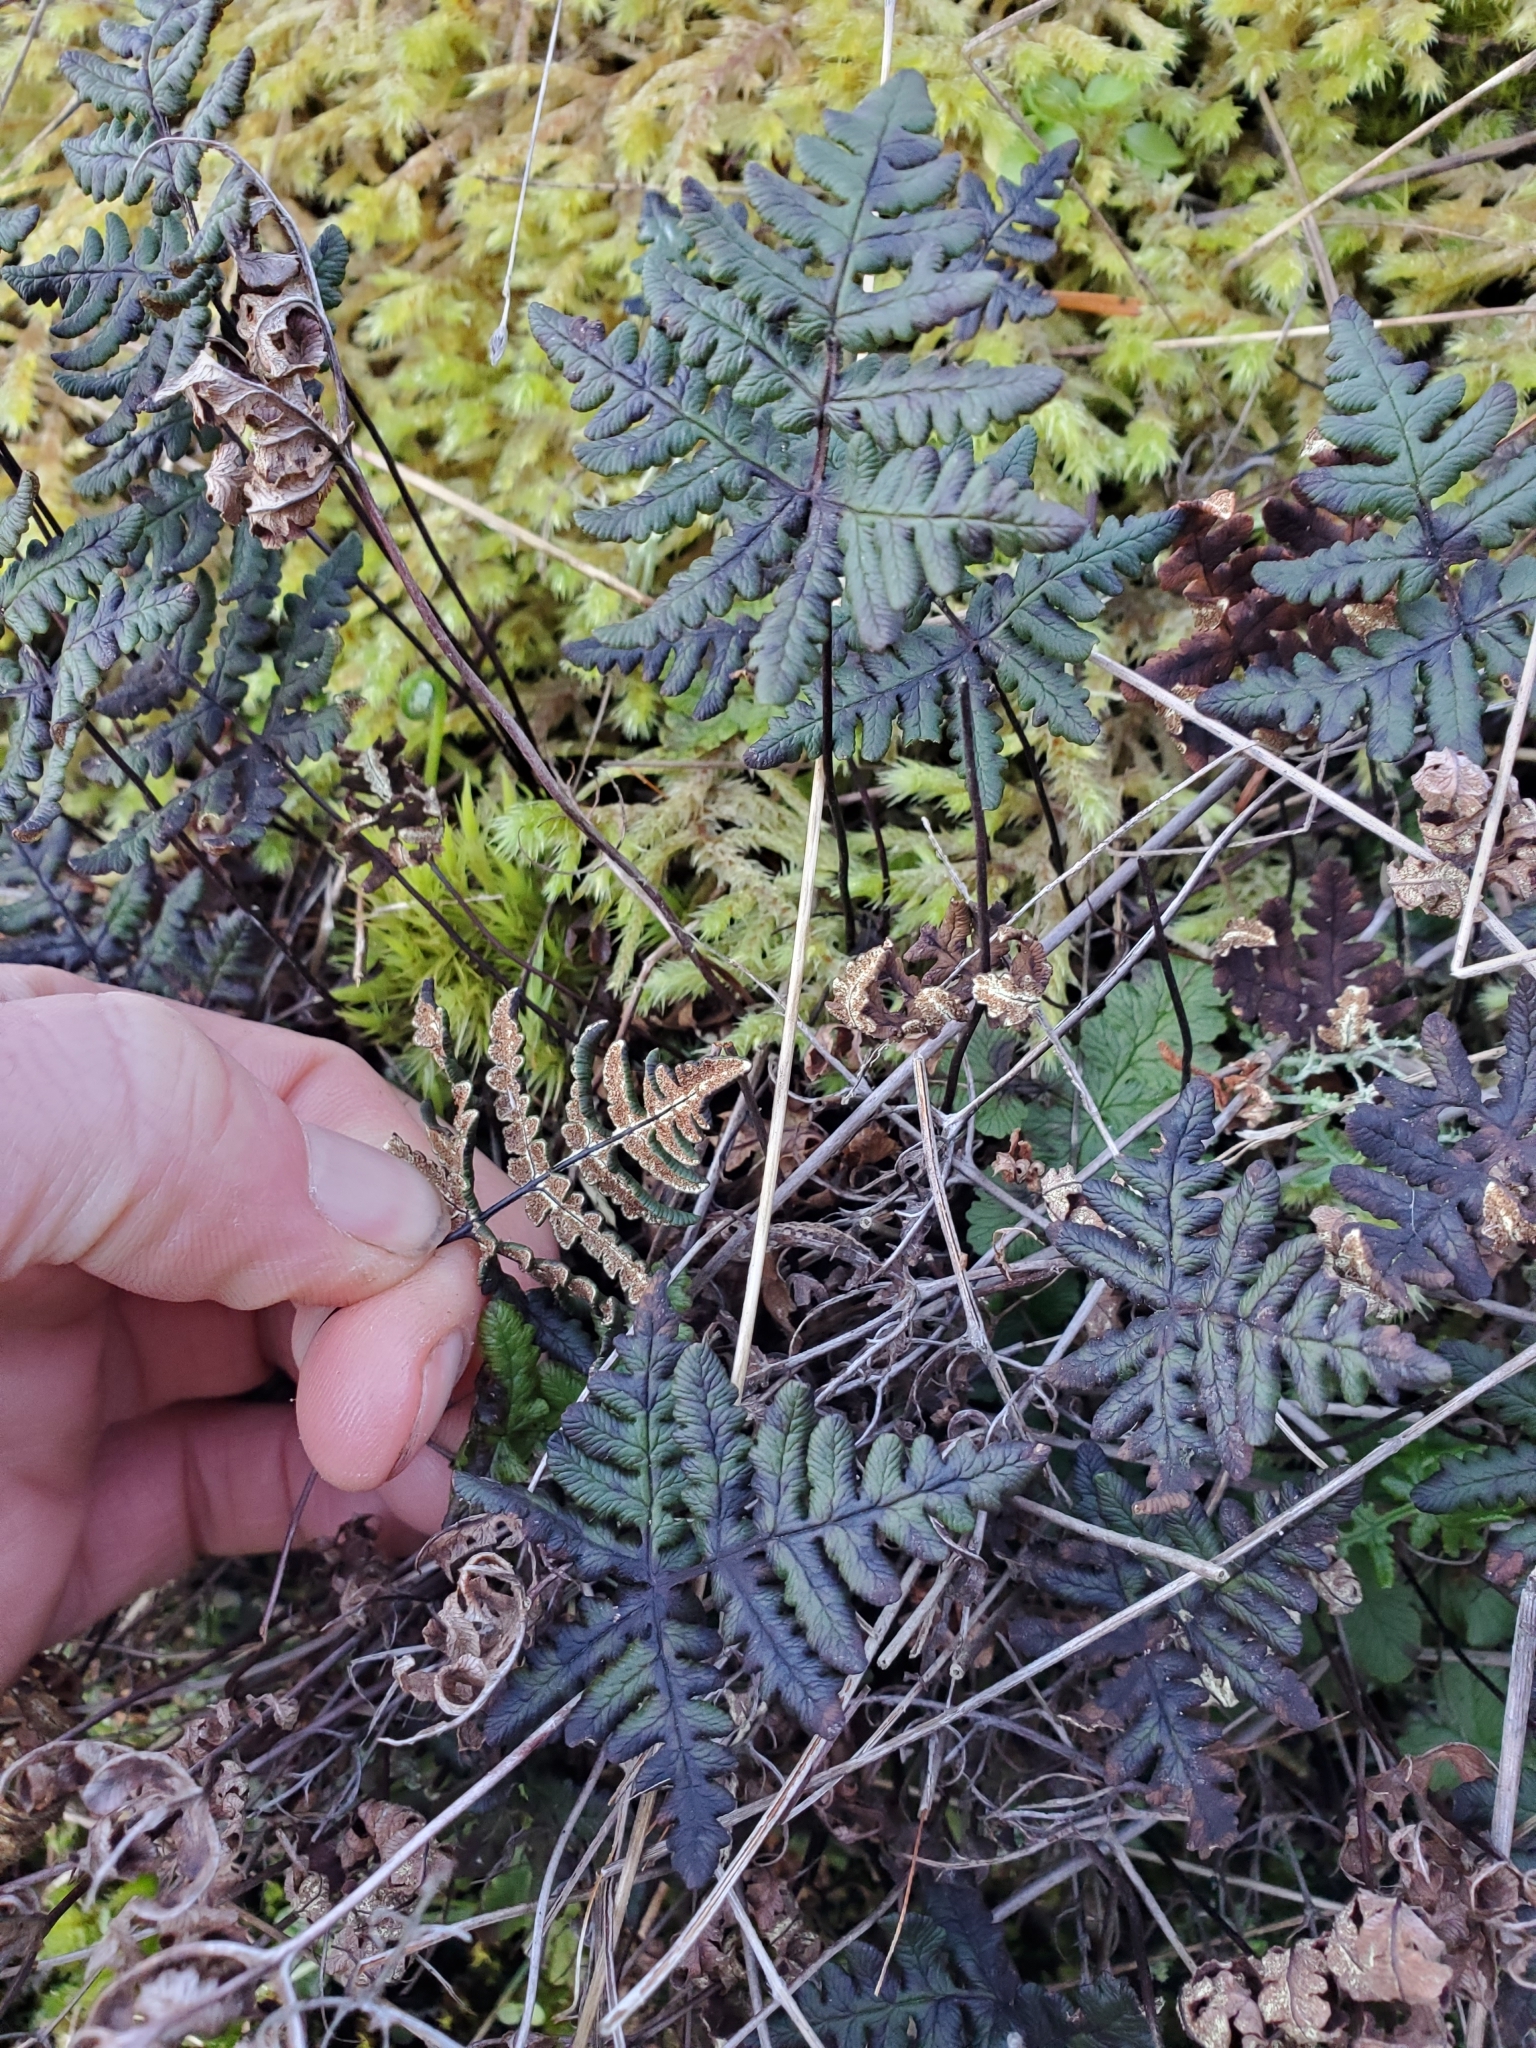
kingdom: Plantae
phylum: Tracheophyta
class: Polypodiopsida
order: Polypodiales
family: Pteridaceae
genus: Pentagramma
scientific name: Pentagramma triangularis
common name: Gold fern
